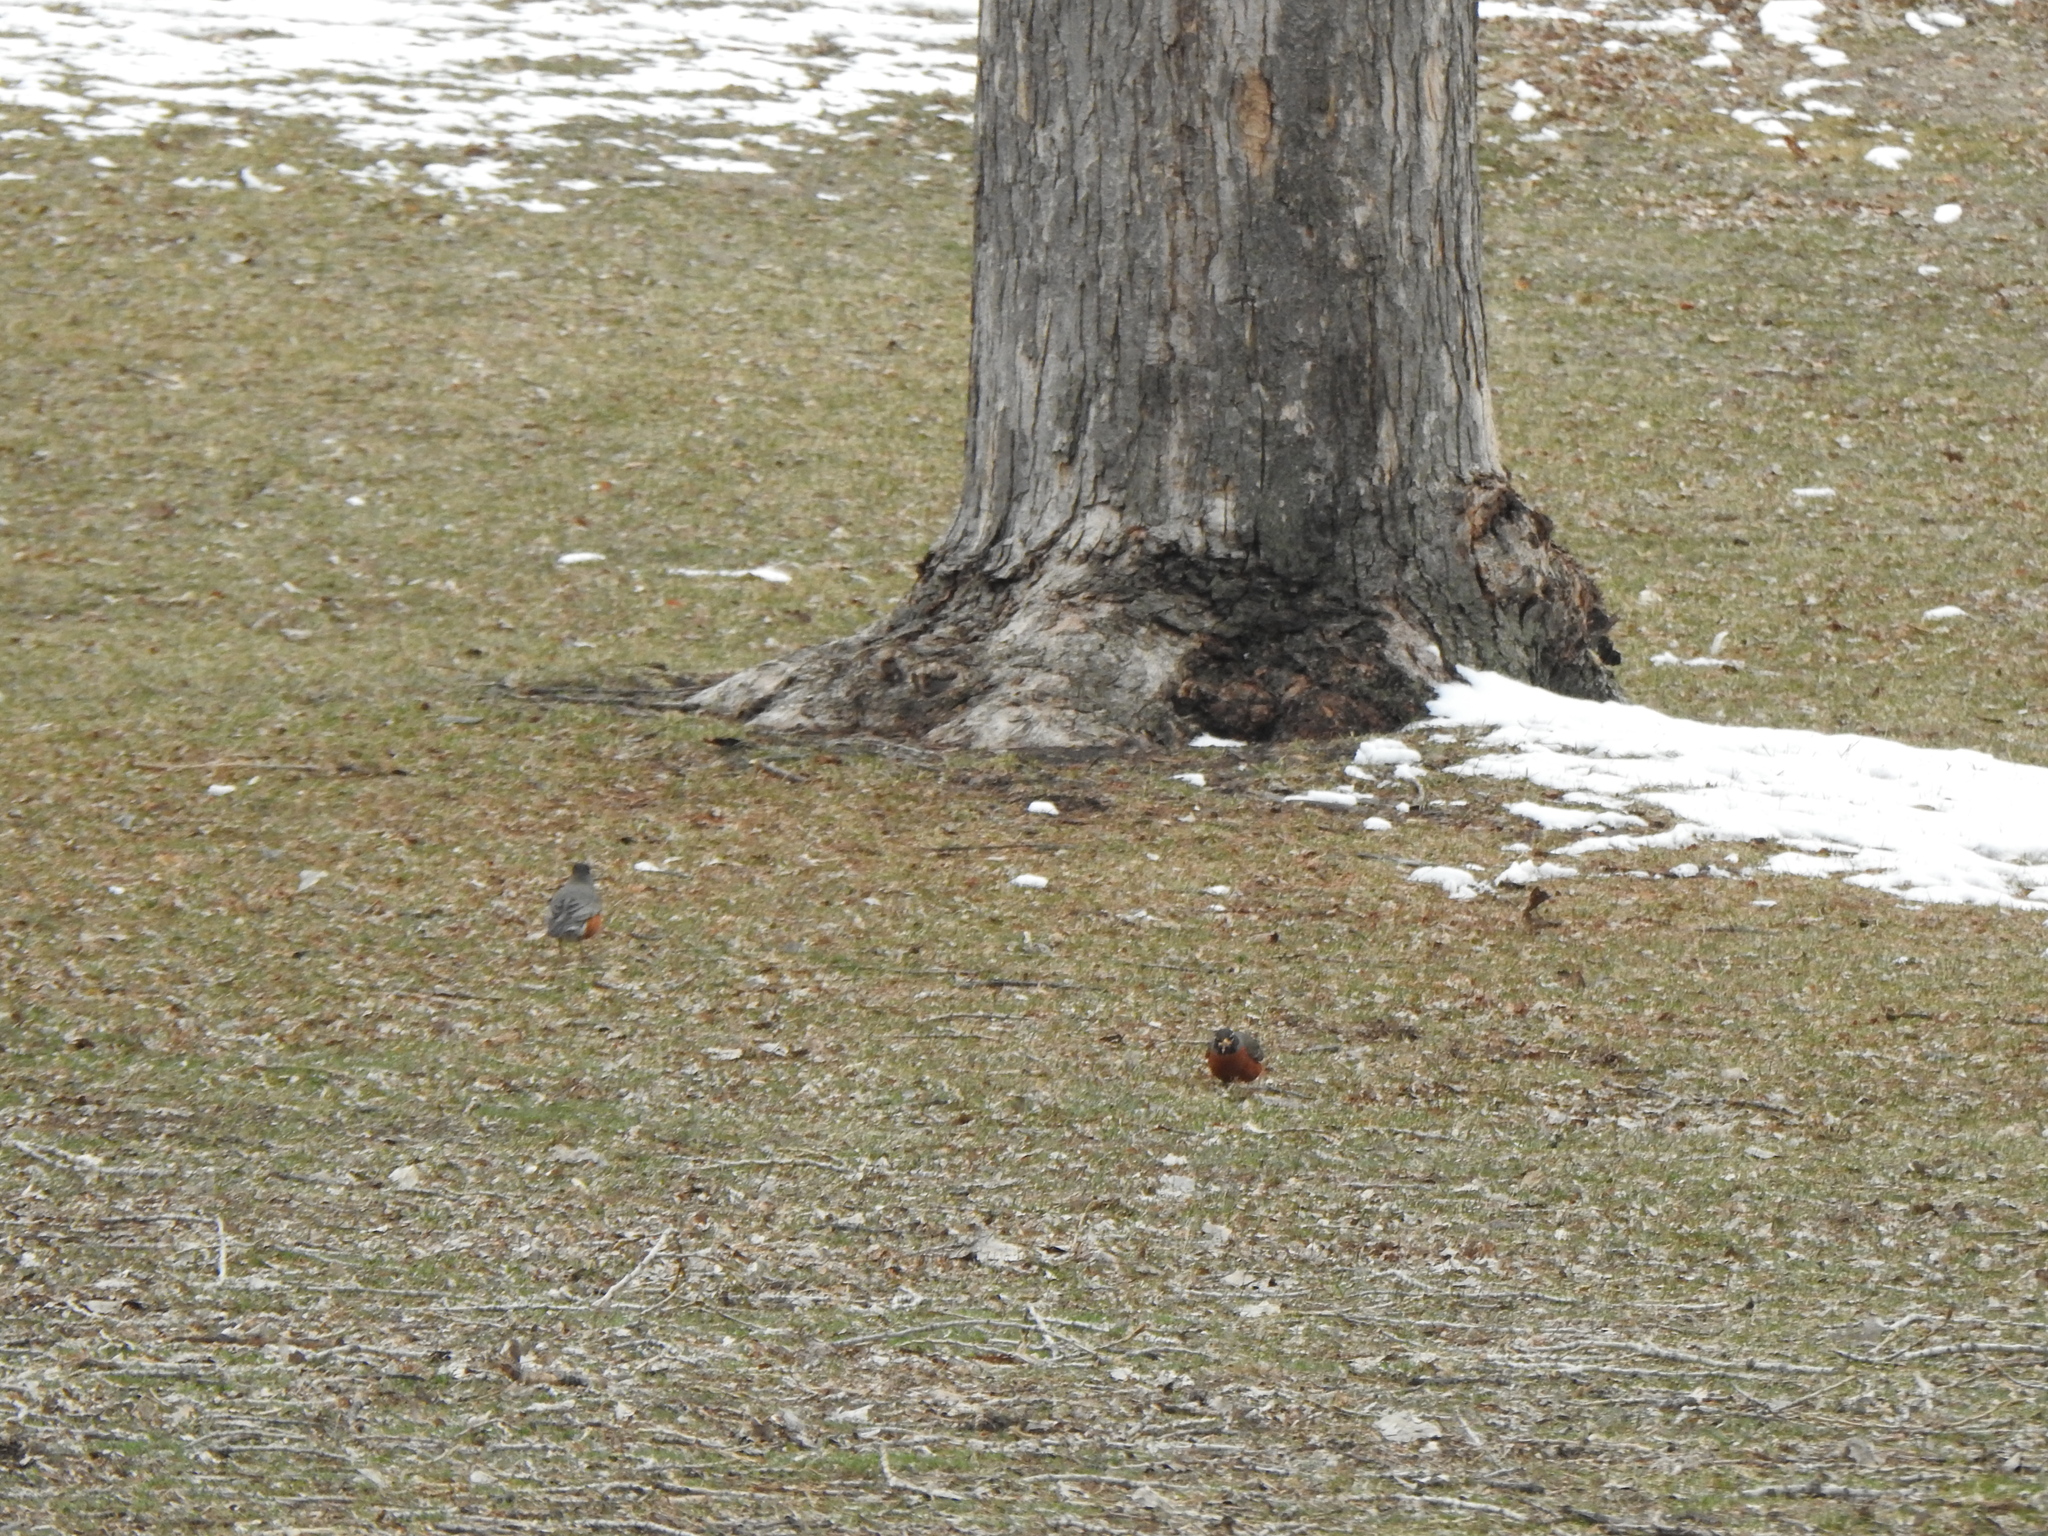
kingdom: Animalia
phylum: Chordata
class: Aves
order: Passeriformes
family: Turdidae
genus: Turdus
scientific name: Turdus migratorius
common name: American robin
